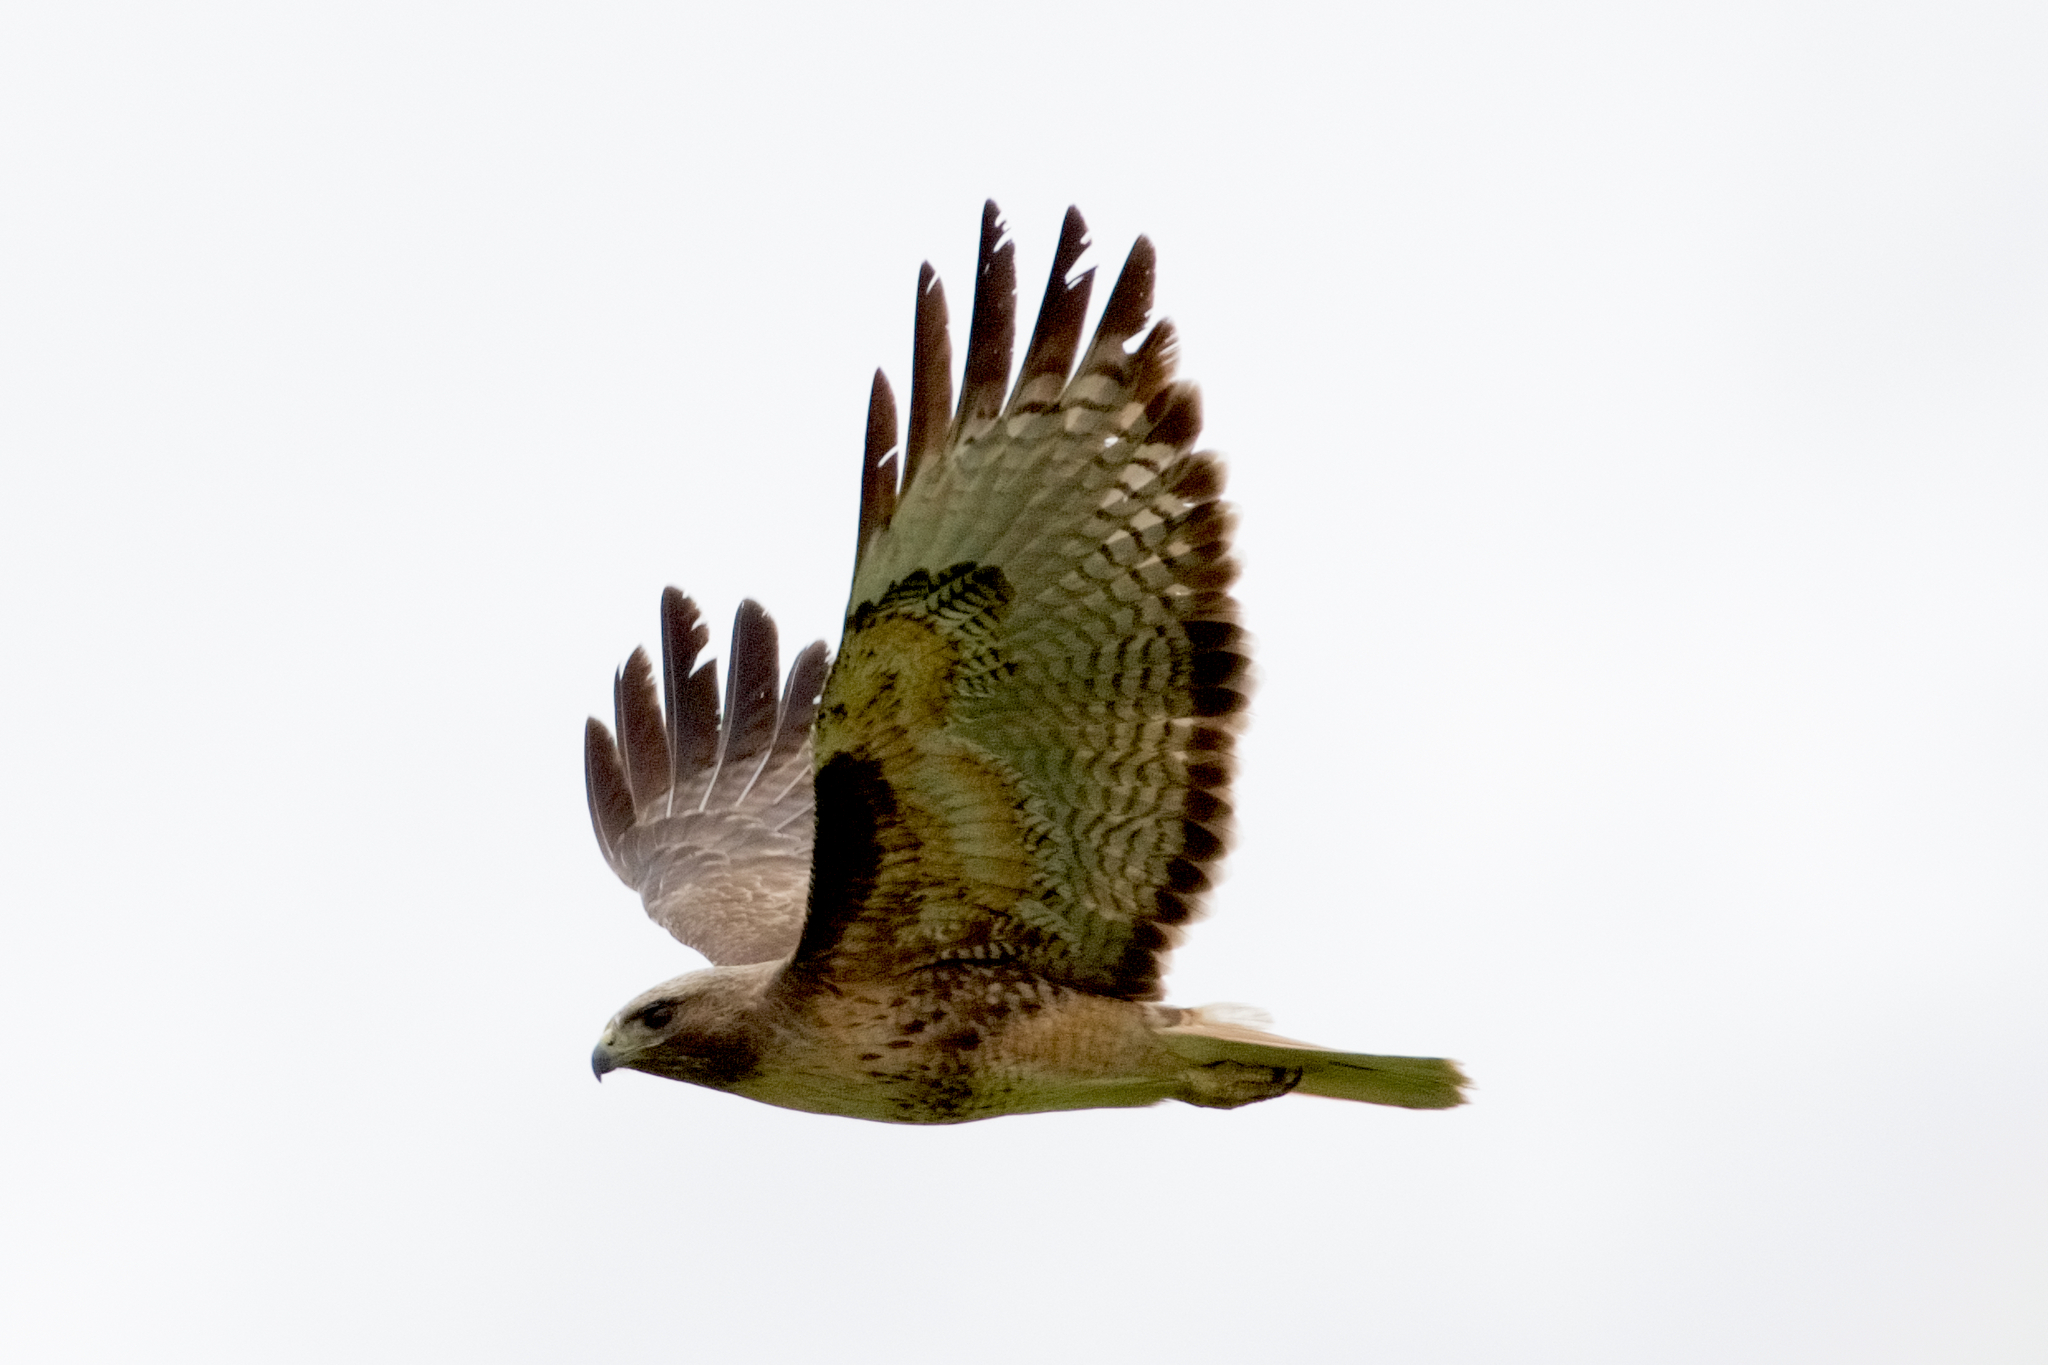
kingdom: Animalia
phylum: Chordata
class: Aves
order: Accipitriformes
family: Accipitridae
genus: Buteo
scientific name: Buteo jamaicensis
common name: Red-tailed hawk
